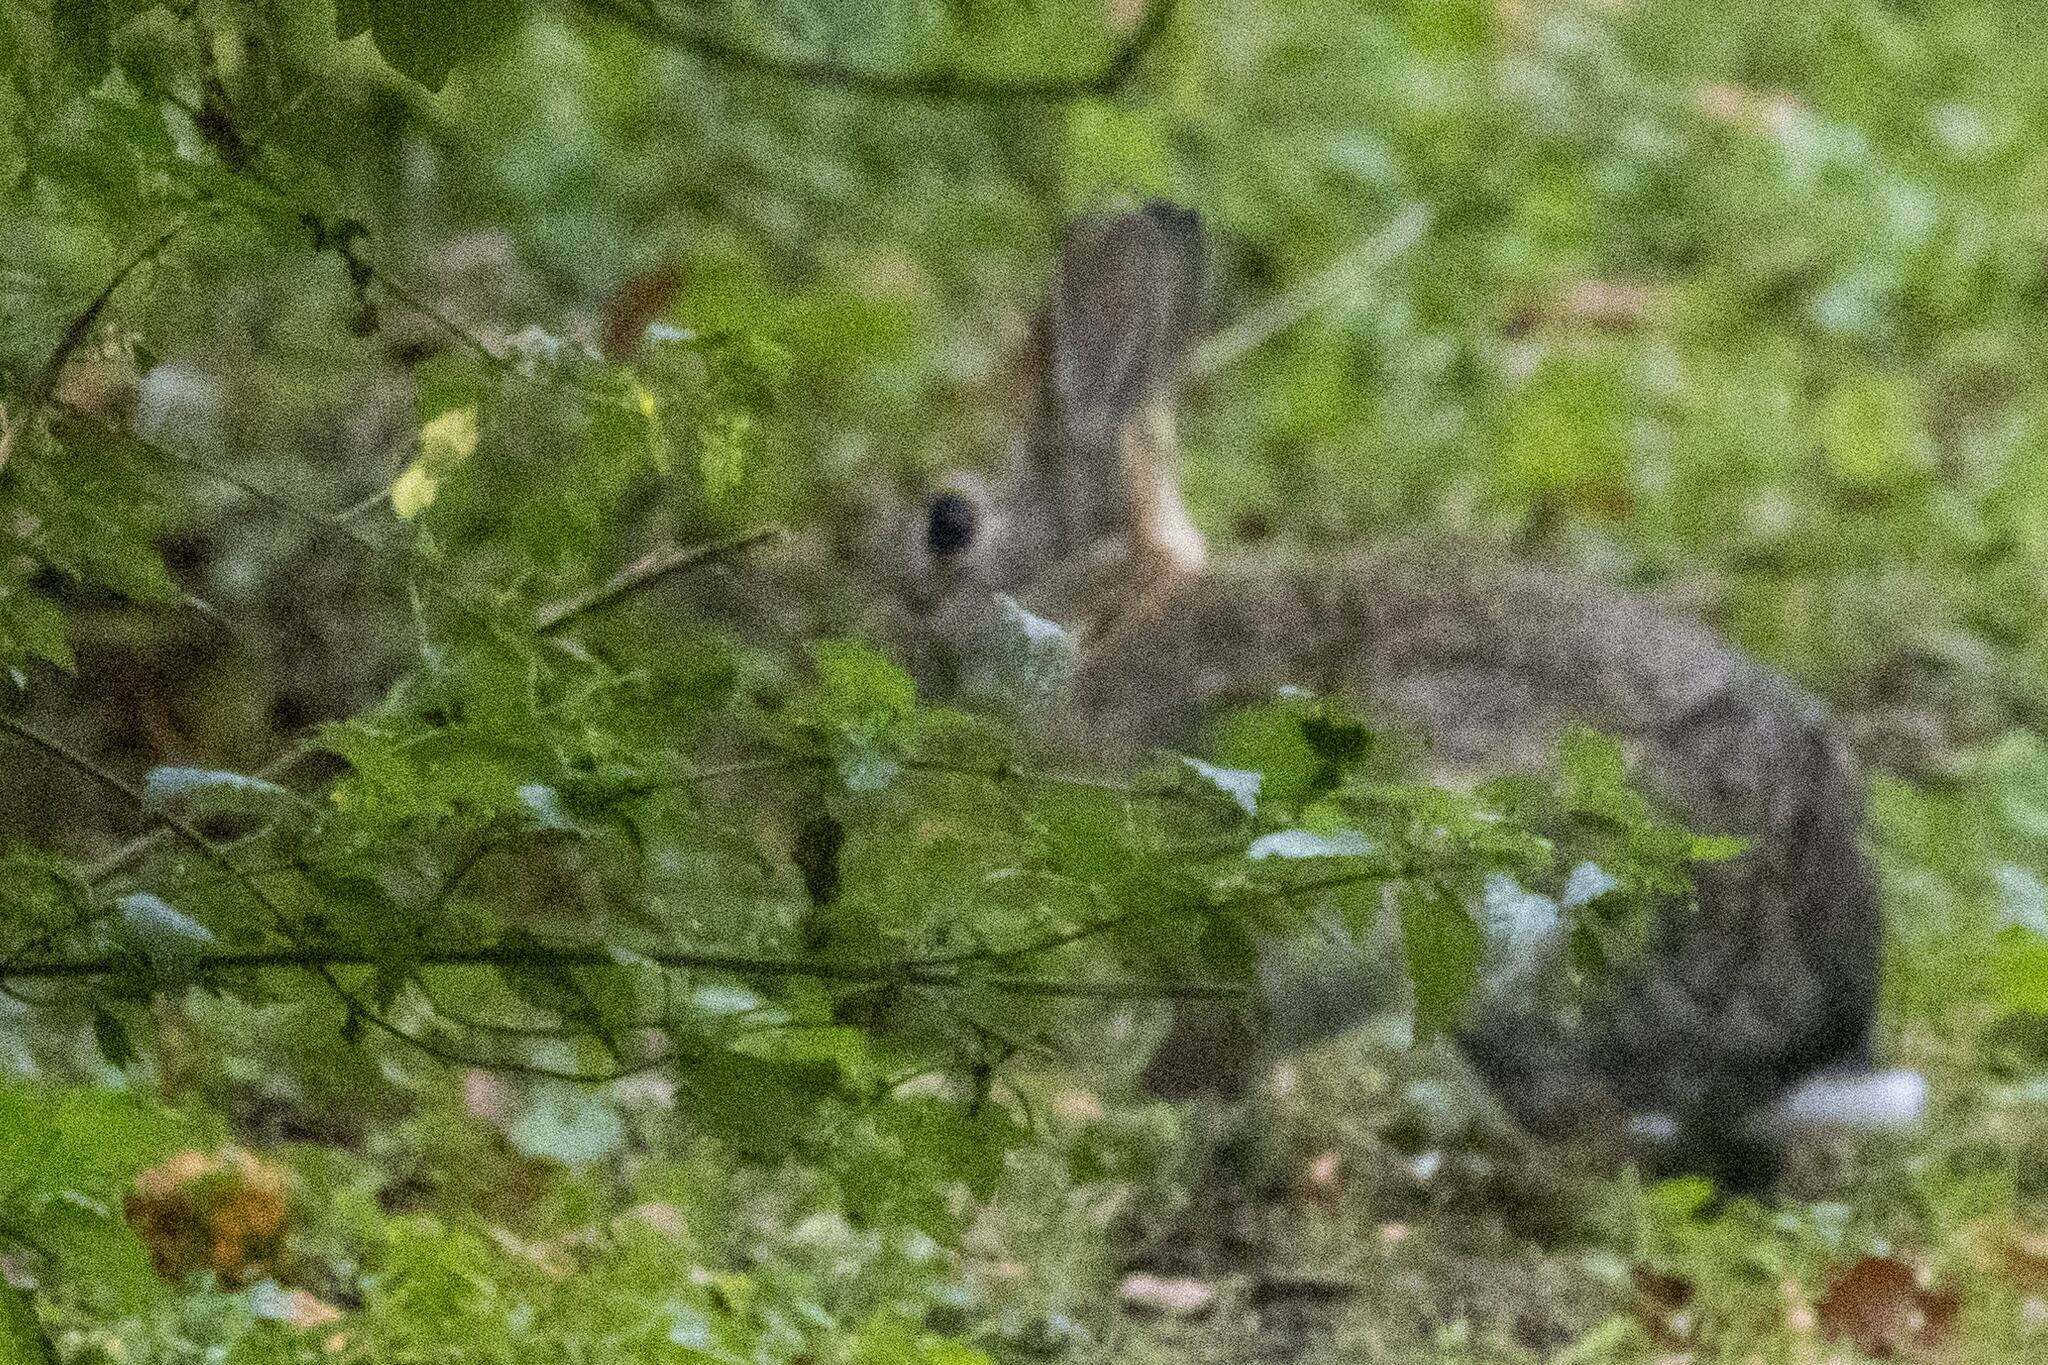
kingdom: Animalia
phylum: Chordata
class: Mammalia
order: Lagomorpha
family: Leporidae
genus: Oryctolagus
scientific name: Oryctolagus cuniculus
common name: European rabbit
